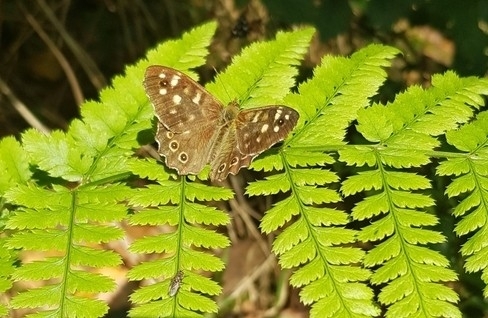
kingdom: Animalia
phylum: Arthropoda
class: Insecta
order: Lepidoptera
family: Nymphalidae
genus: Pararge
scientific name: Pararge aegeria
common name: Speckled wood
